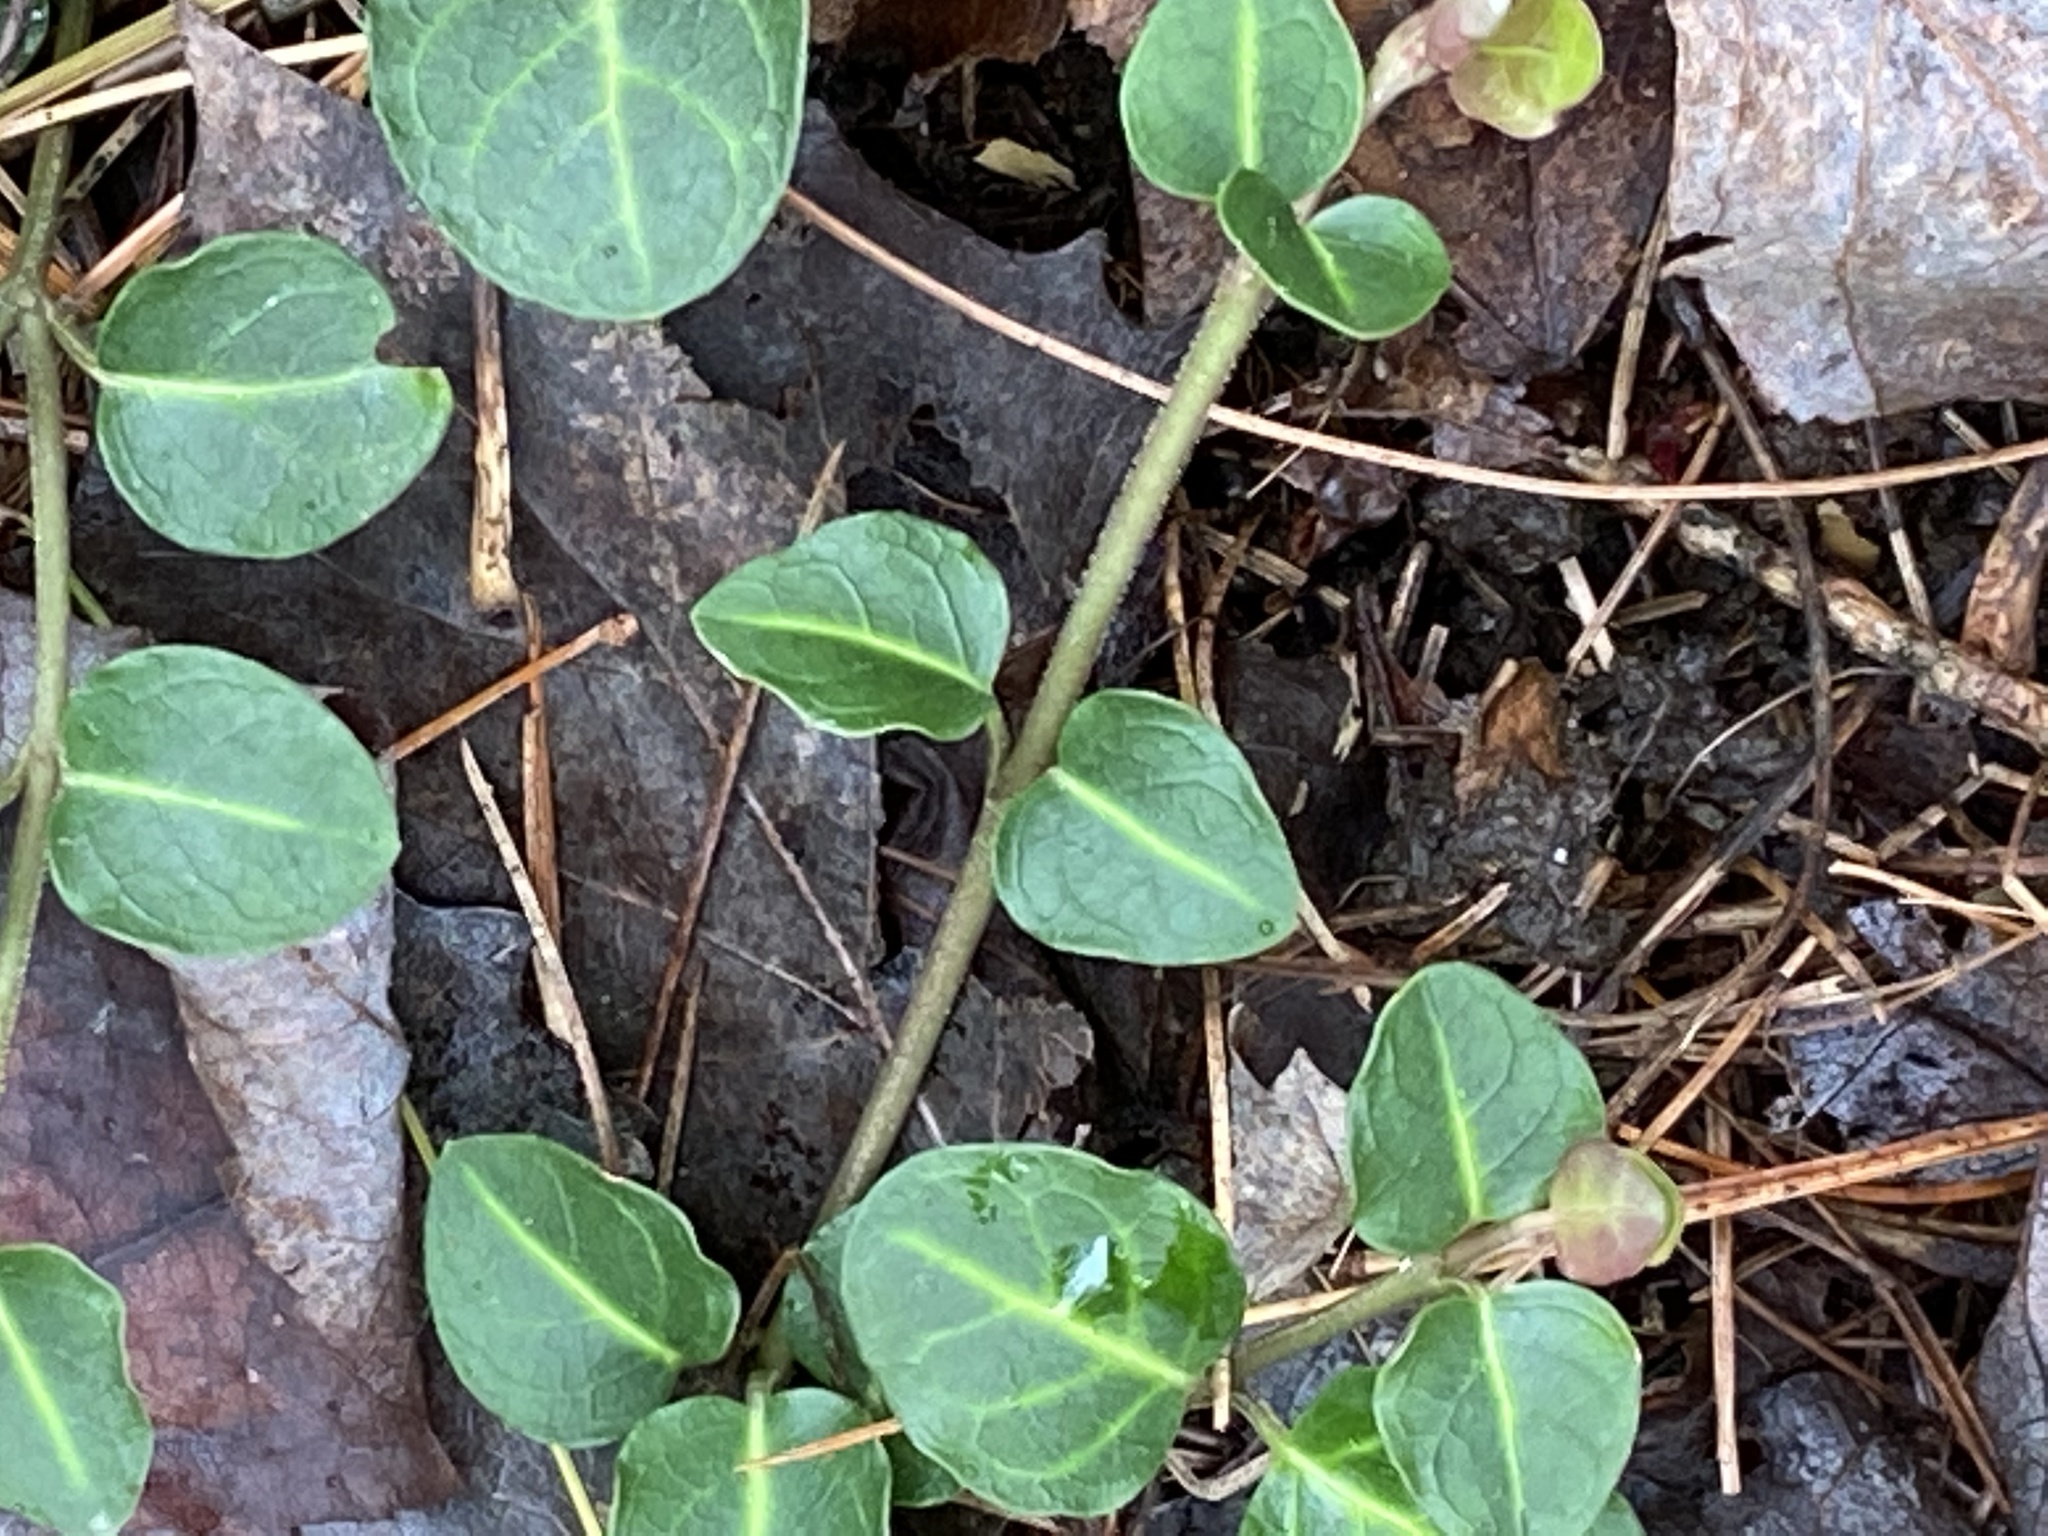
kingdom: Plantae
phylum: Tracheophyta
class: Magnoliopsida
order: Gentianales
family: Rubiaceae
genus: Mitchella
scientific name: Mitchella repens
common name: Partridge-berry
